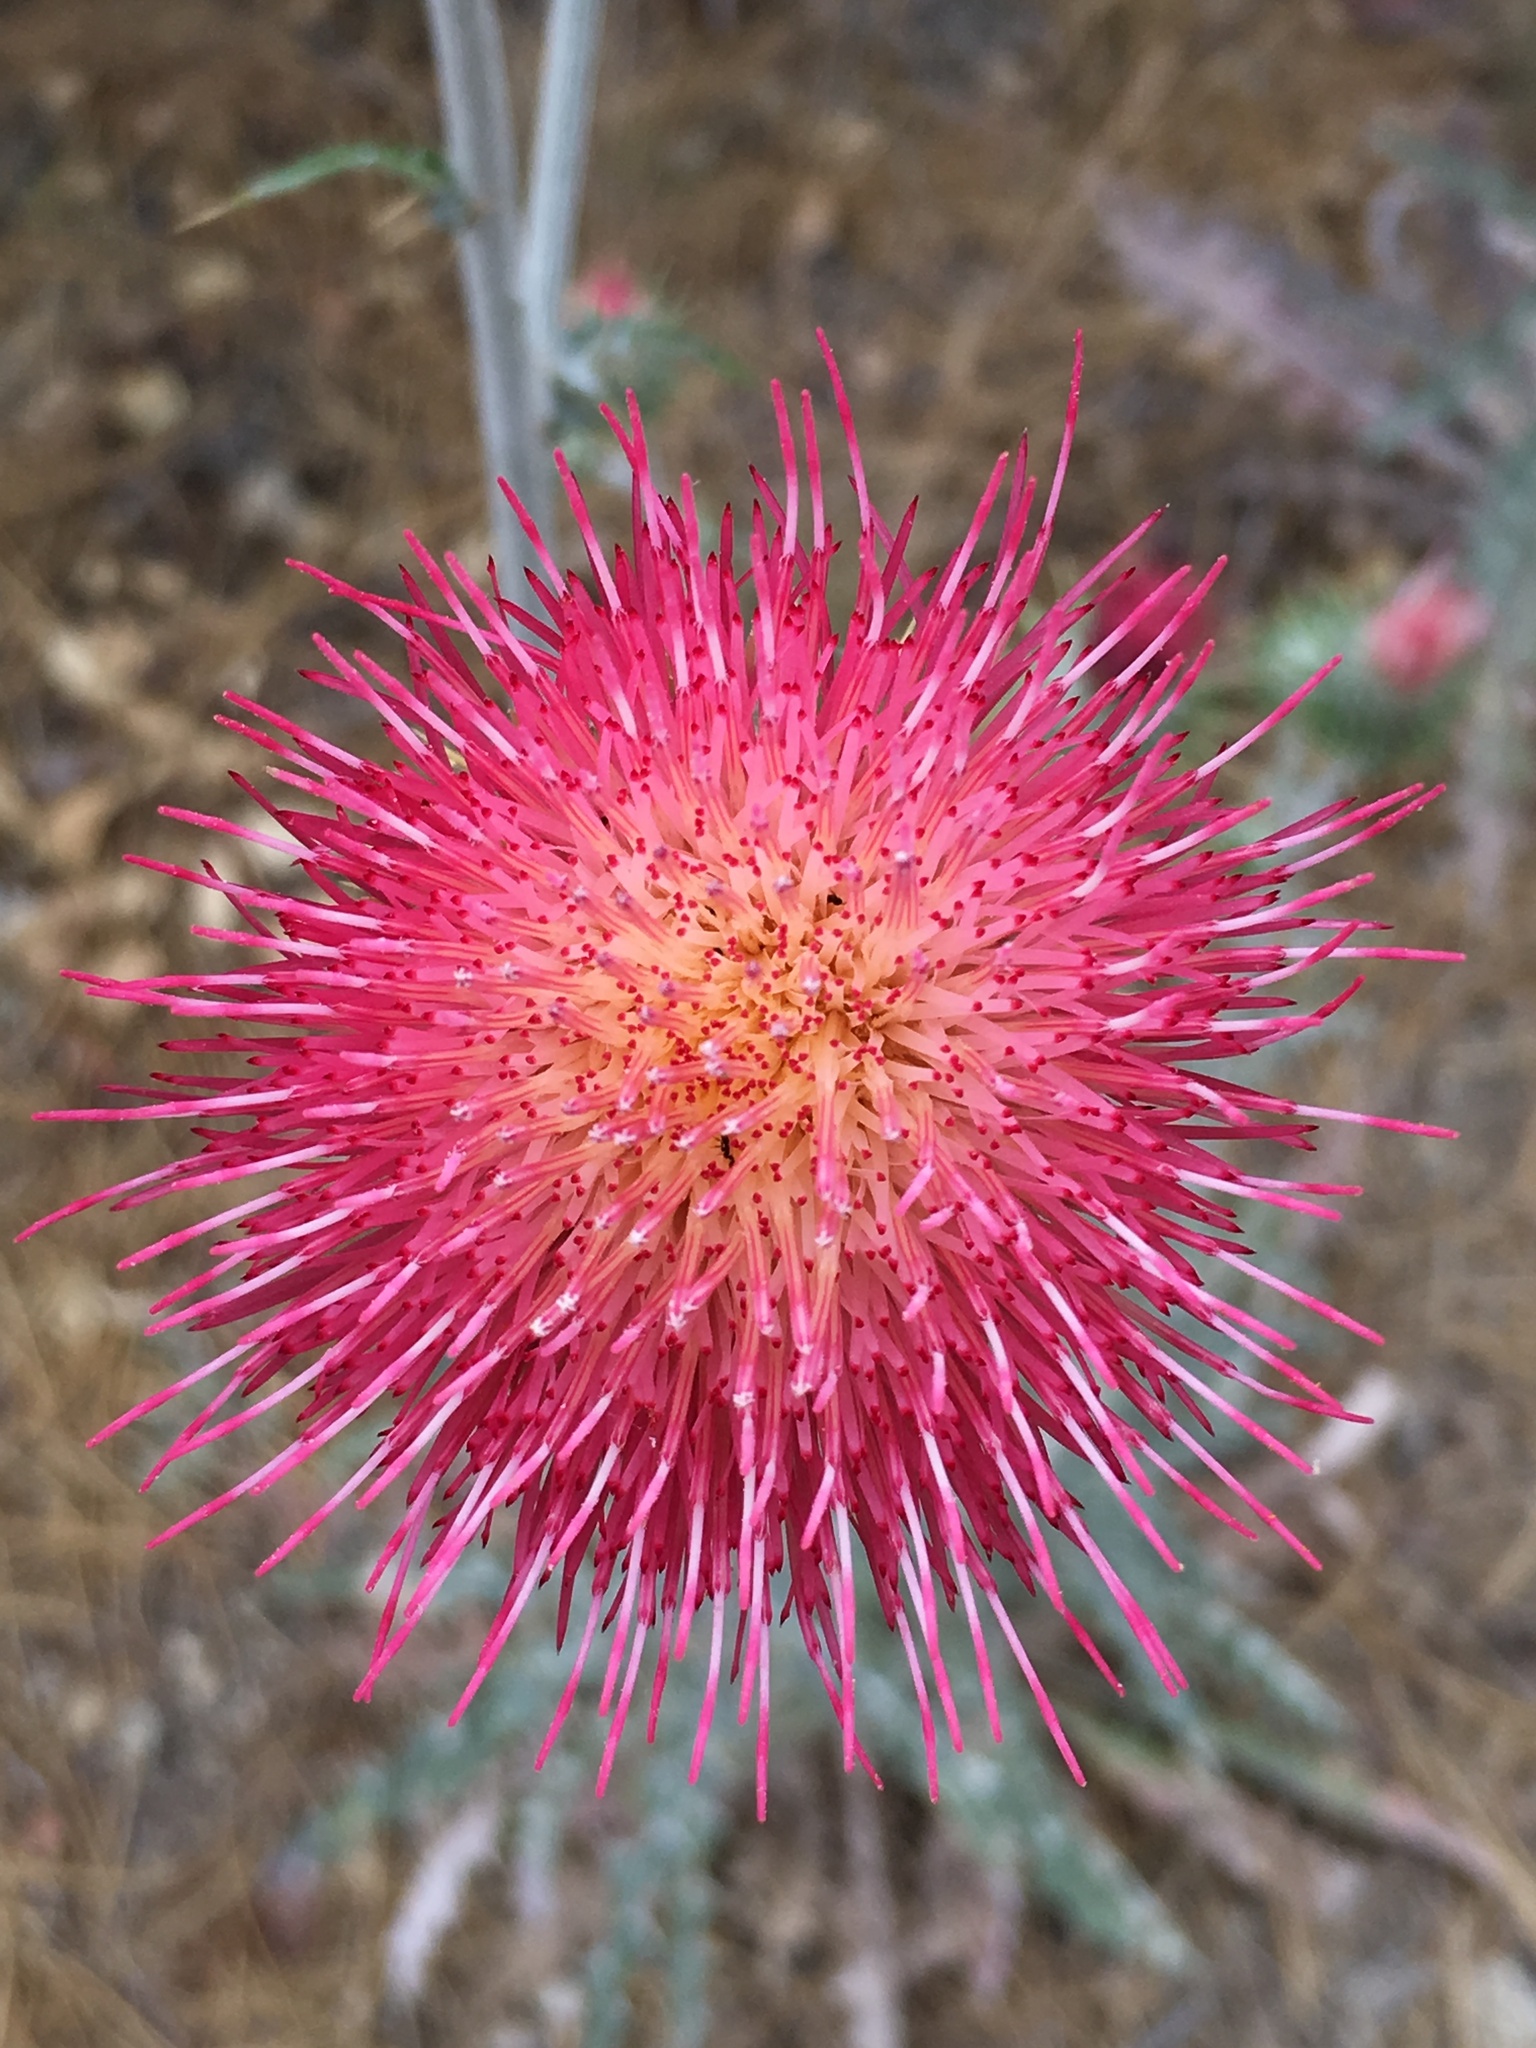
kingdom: Plantae
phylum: Tracheophyta
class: Magnoliopsida
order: Asterales
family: Asteraceae
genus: Cirsium
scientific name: Cirsium occidentale
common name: Western thistle
